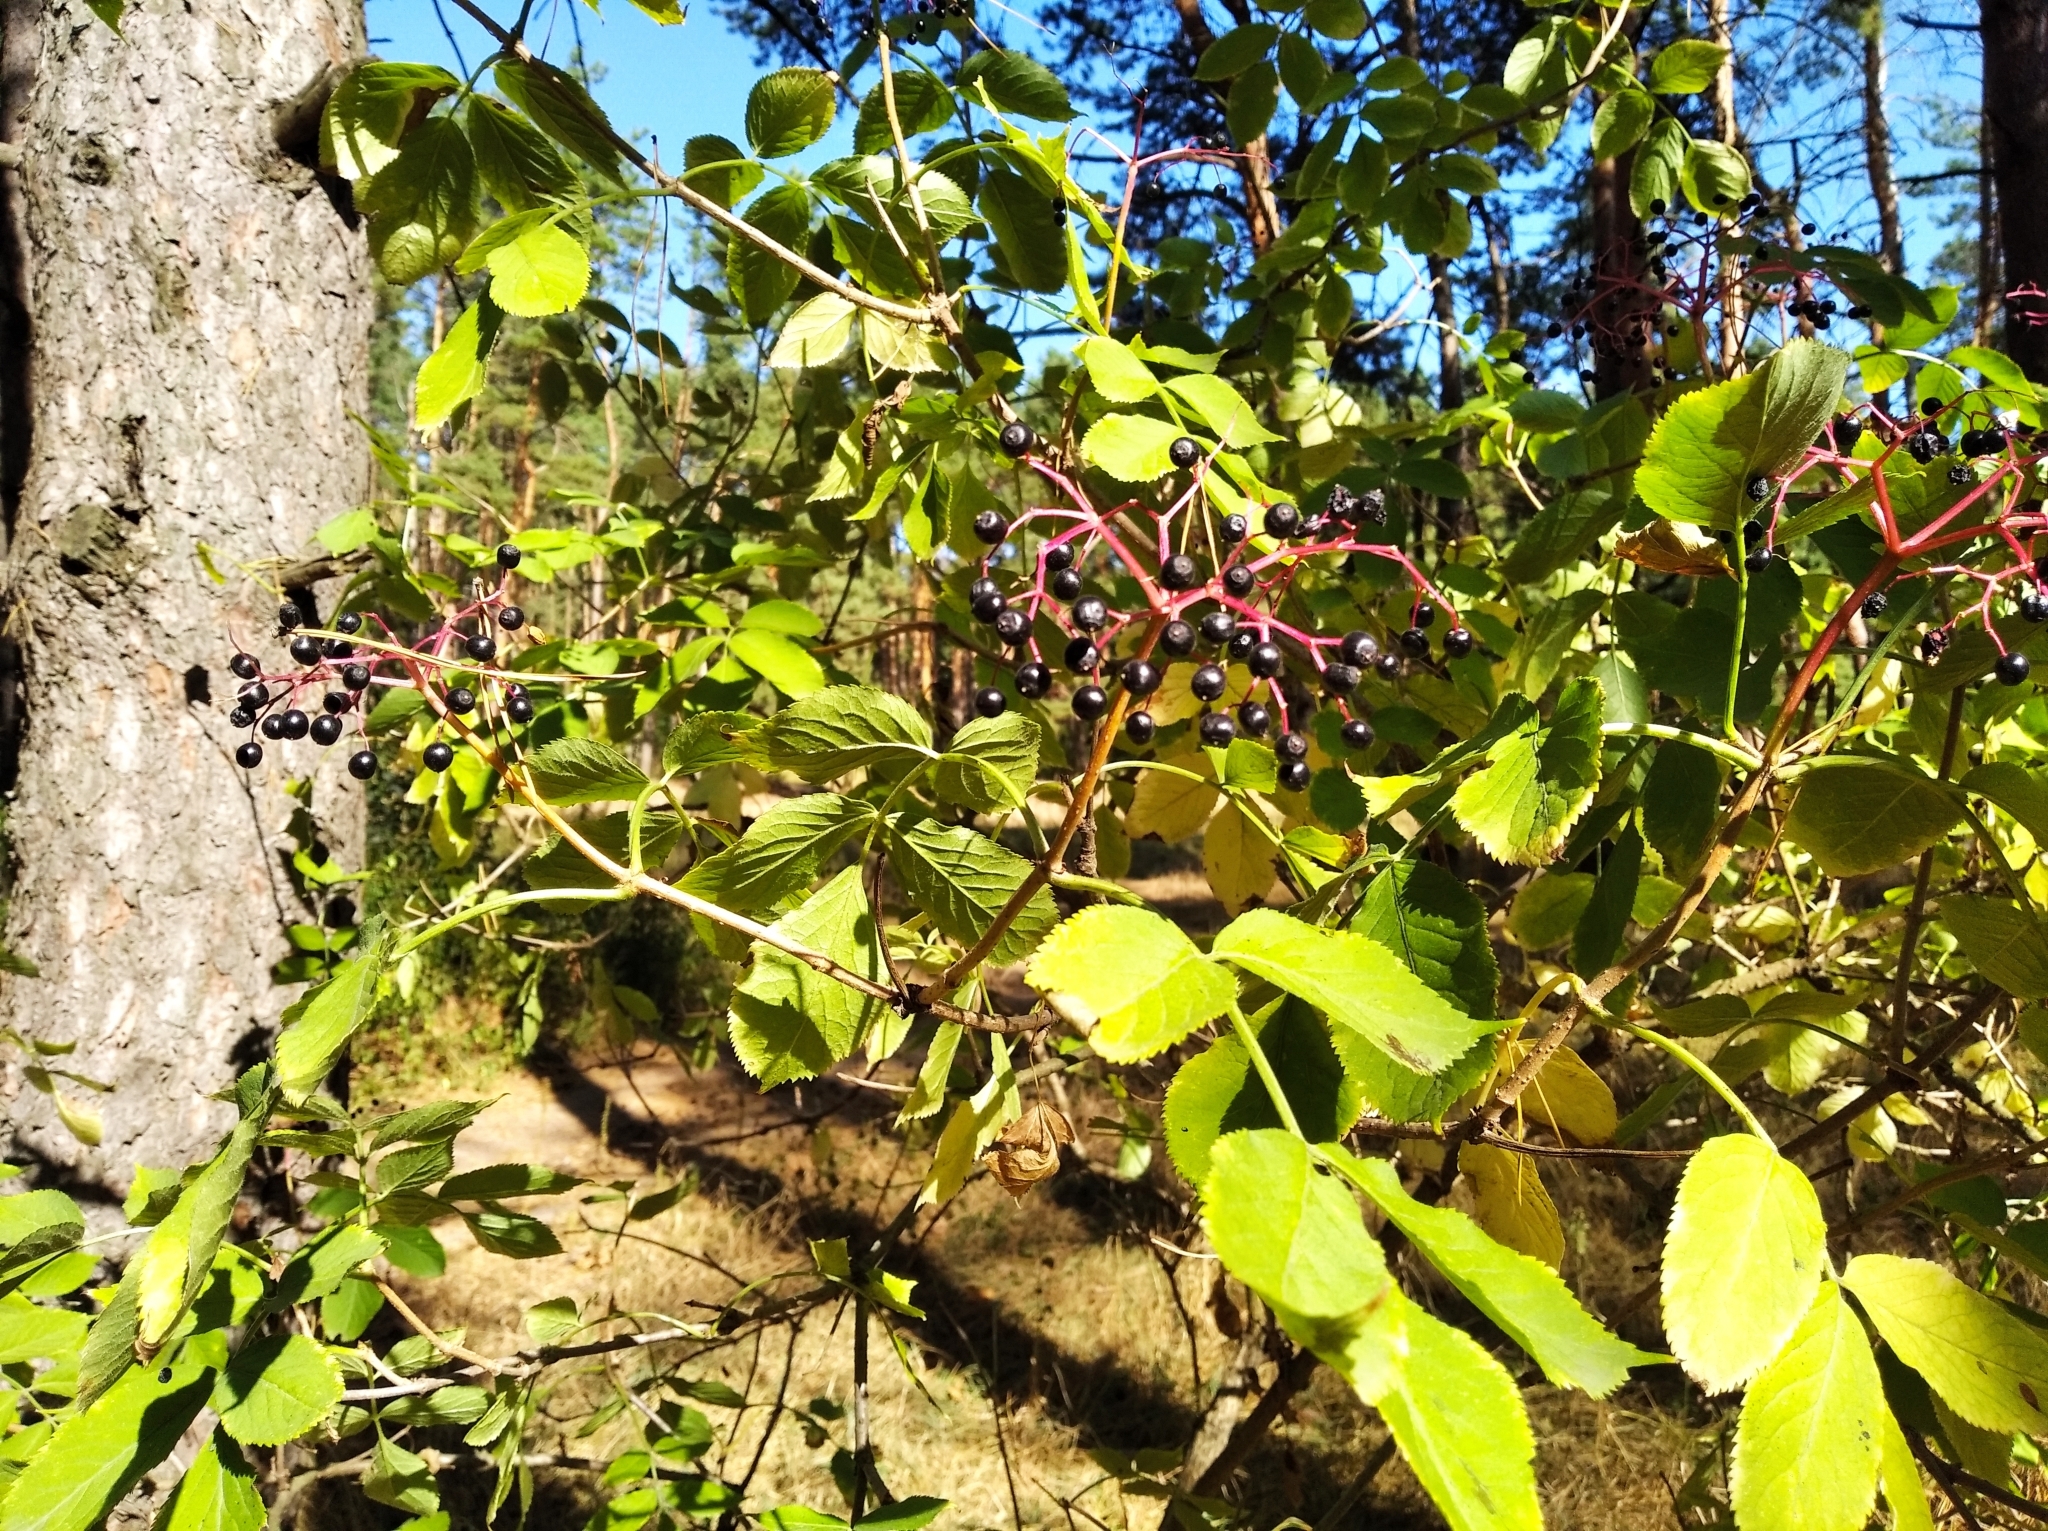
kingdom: Plantae
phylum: Tracheophyta
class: Magnoliopsida
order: Dipsacales
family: Viburnaceae
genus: Sambucus
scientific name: Sambucus nigra
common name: Elder
